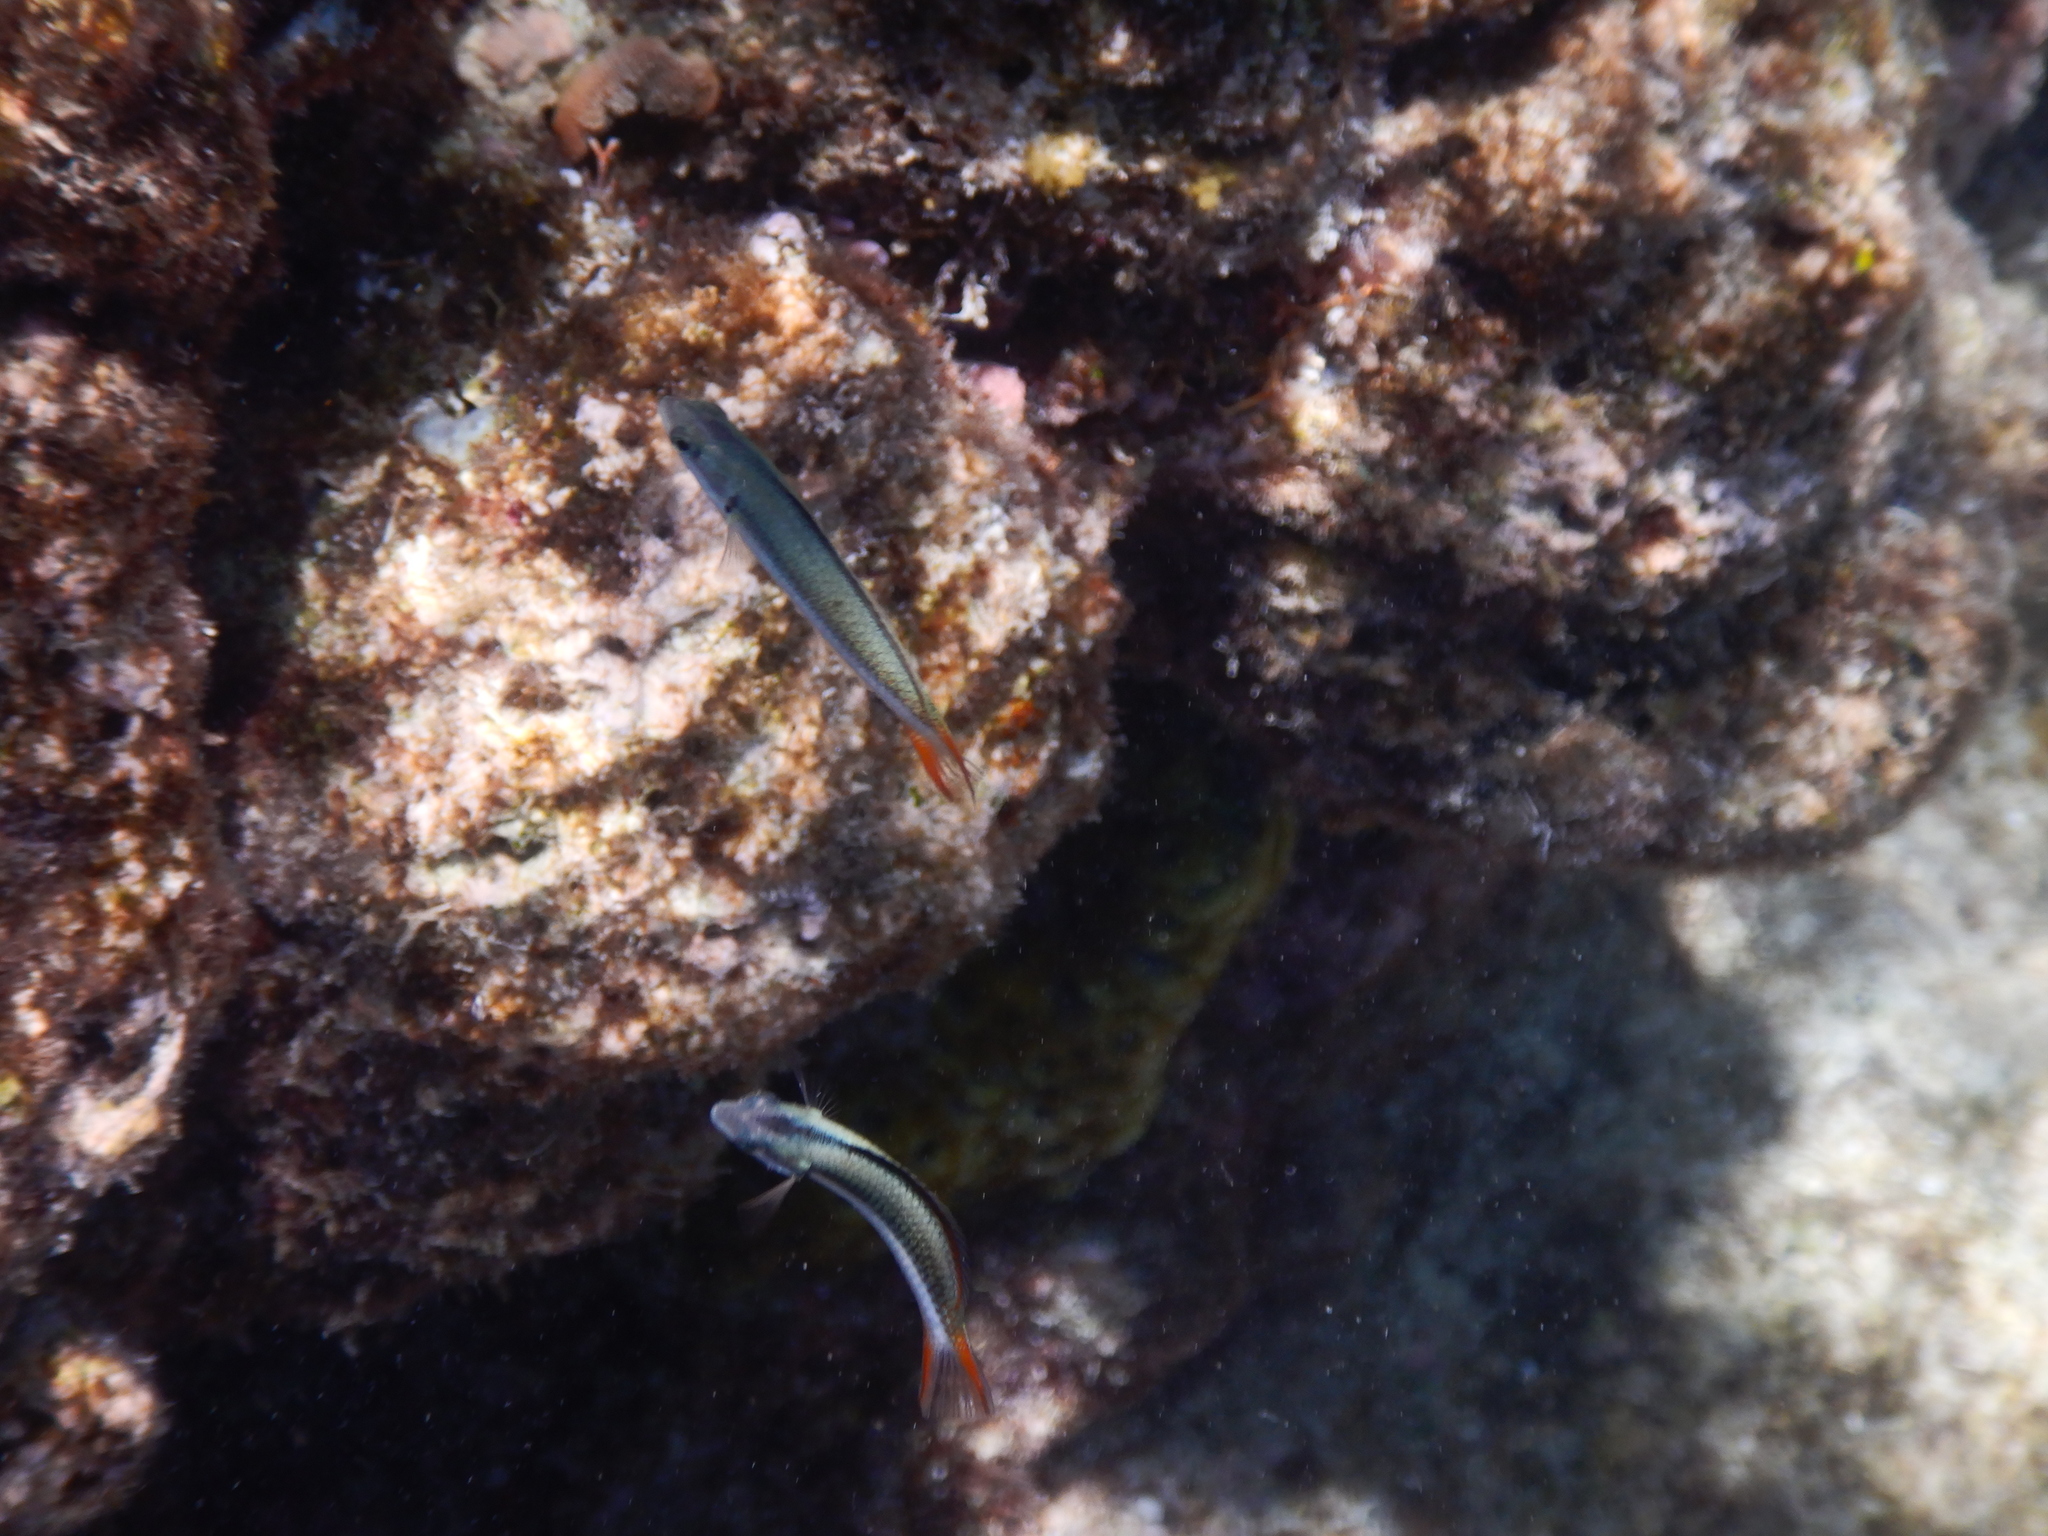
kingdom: Animalia
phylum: Chordata
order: Perciformes
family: Labridae
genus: Thalassoma
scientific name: Thalassoma amblycephalum
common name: Bluehead wrasse
